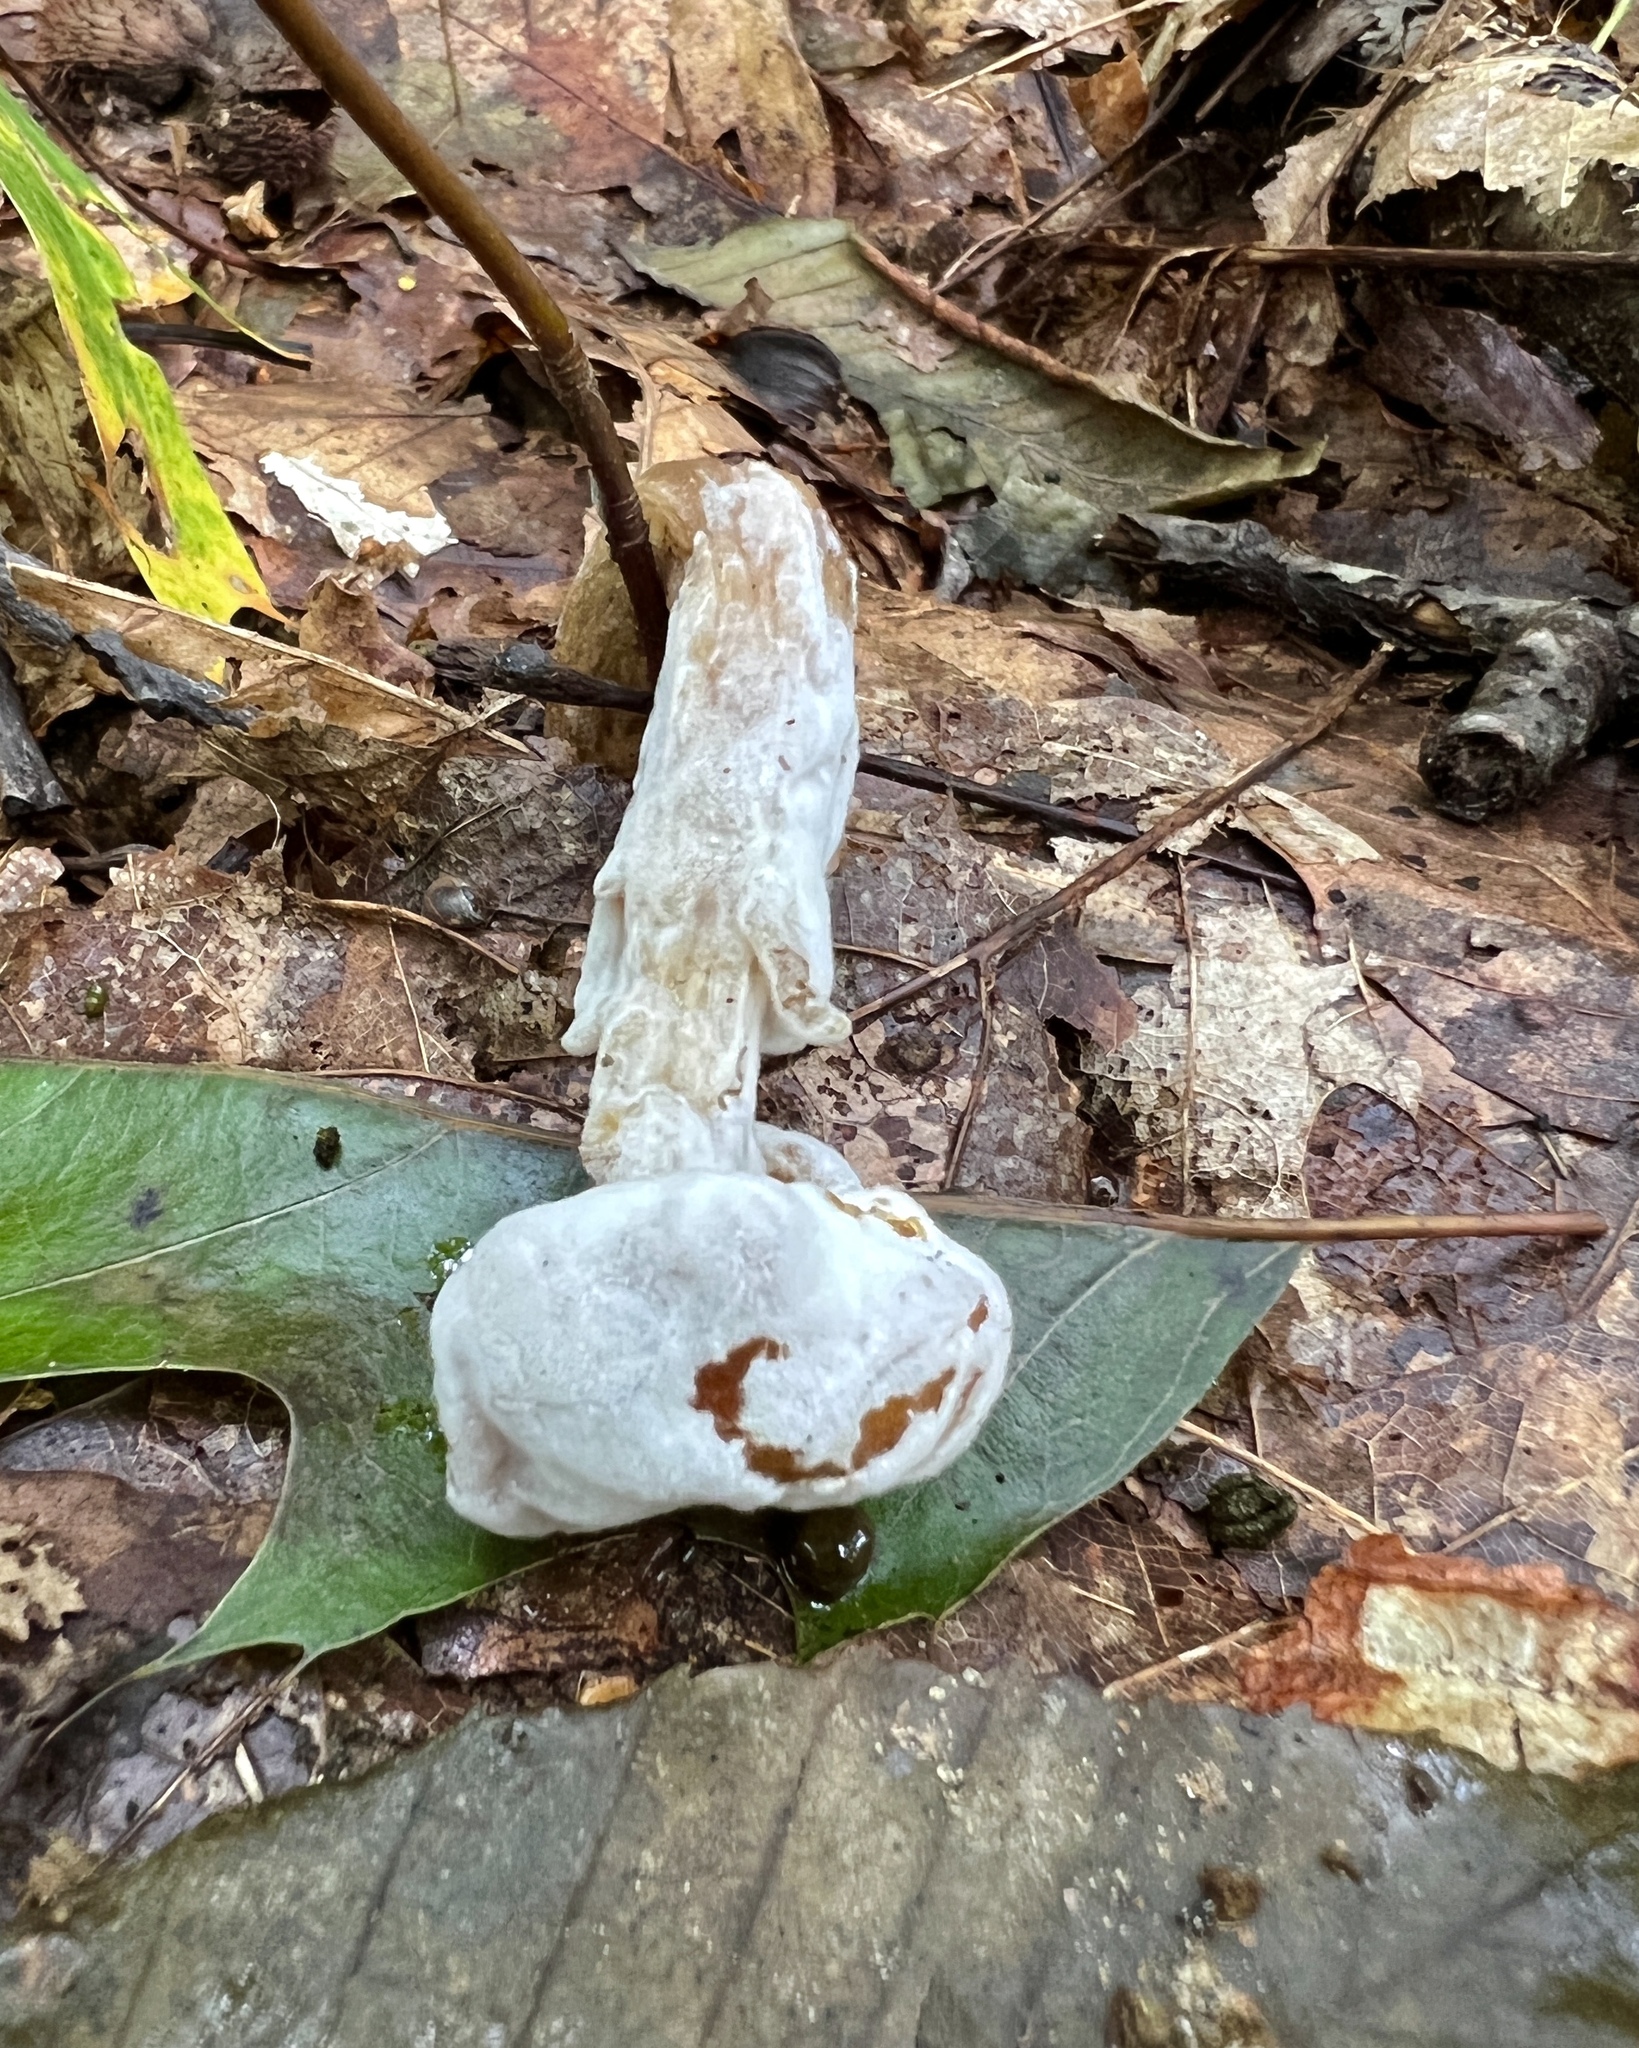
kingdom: Fungi
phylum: Ascomycota
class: Sordariomycetes
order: Hypocreales
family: Hypocreaceae
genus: Hypomyces
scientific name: Hypomyces chrysospermus
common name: Bolete mould
